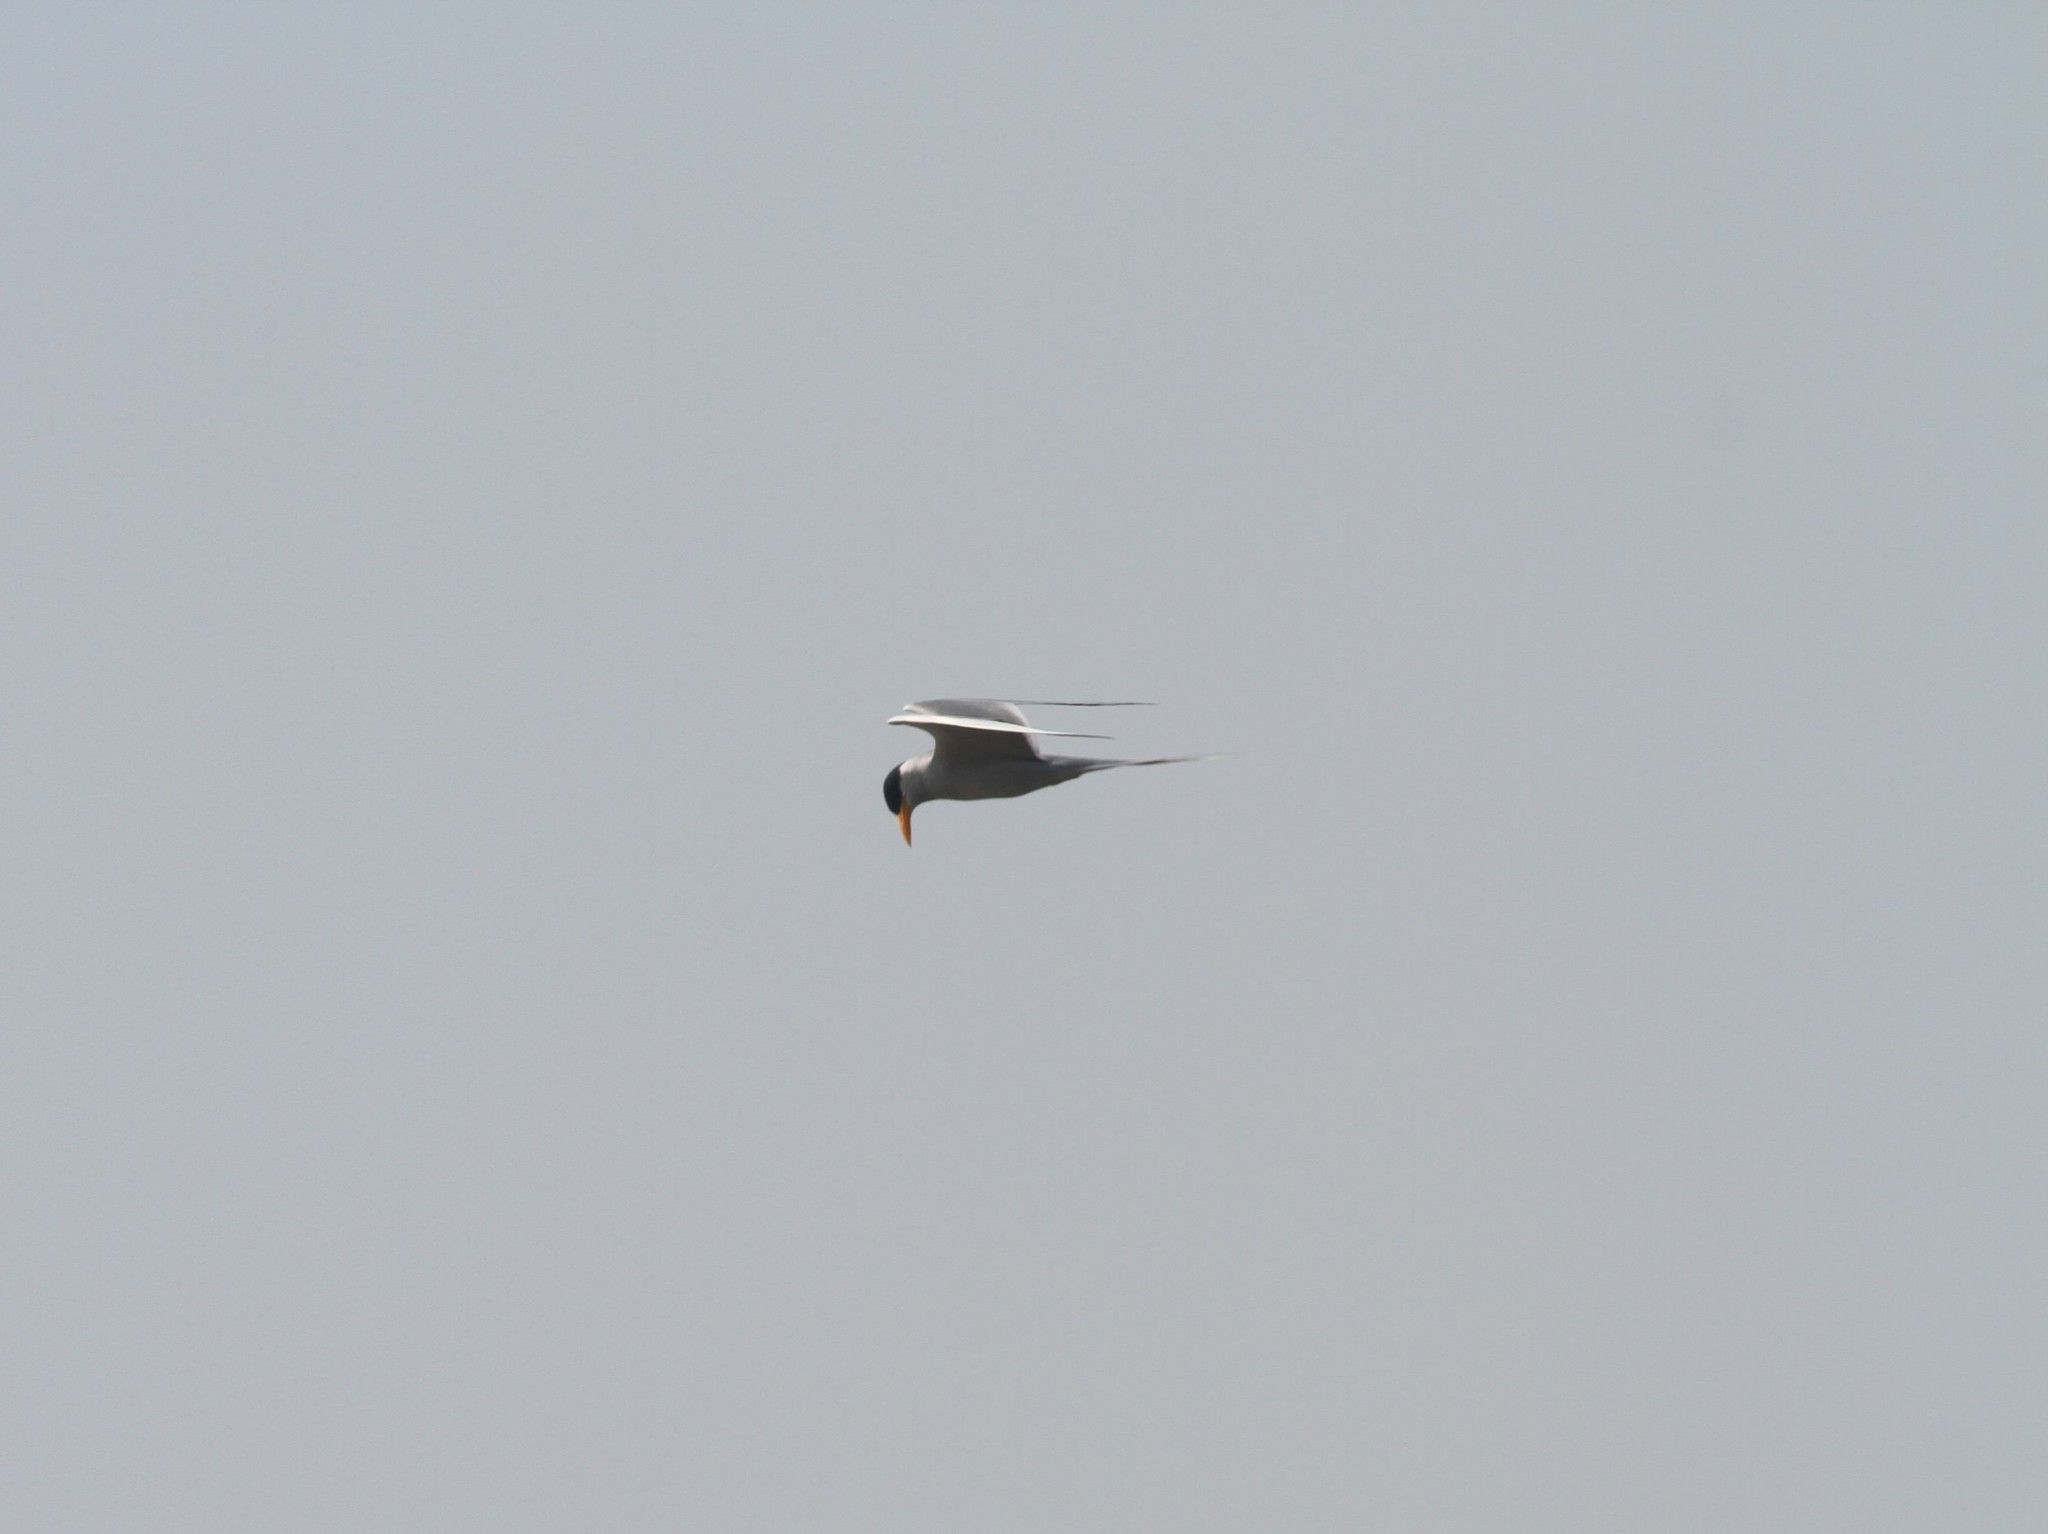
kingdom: Animalia
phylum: Chordata
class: Aves
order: Charadriiformes
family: Laridae
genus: Sterna
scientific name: Sterna aurantia
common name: River tern
